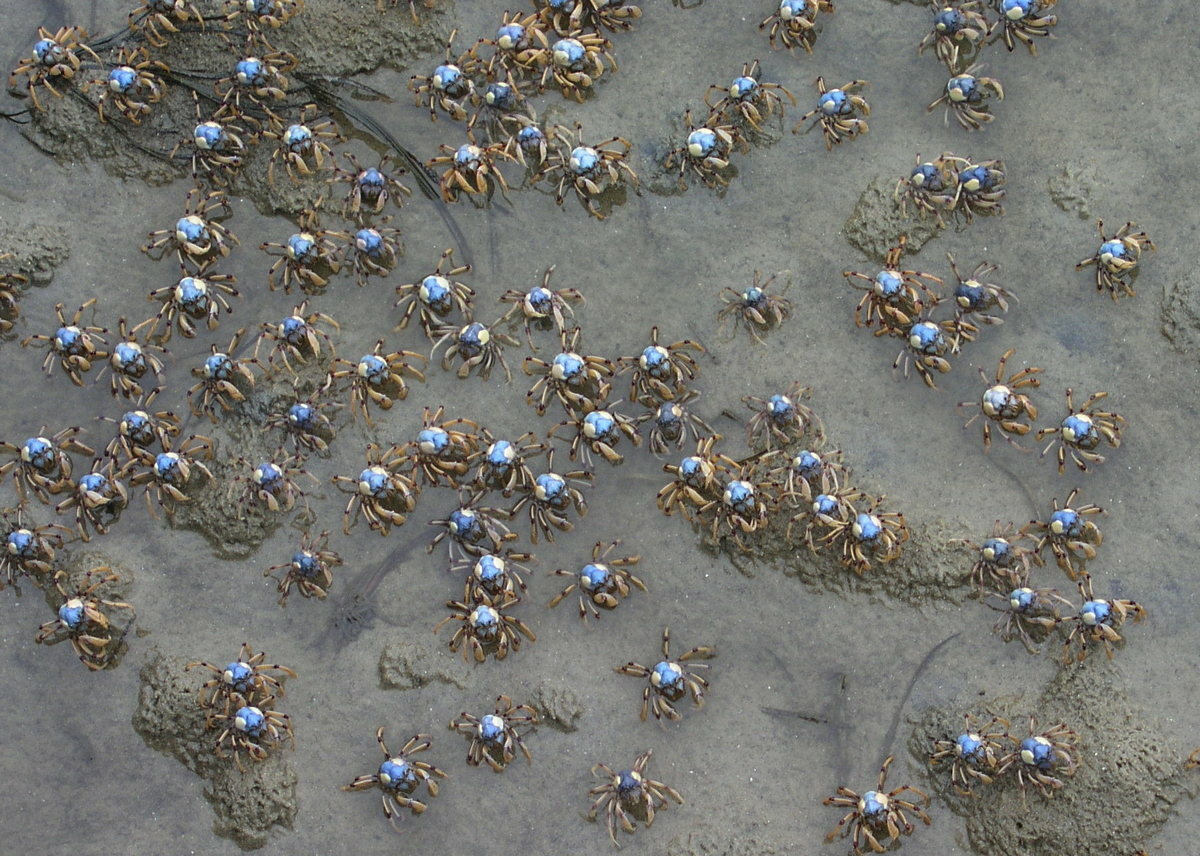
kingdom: Animalia
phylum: Arthropoda
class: Malacostraca
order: Decapoda
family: Mictyridae
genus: Mictyris
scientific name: Mictyris longicarpus
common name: Light-blue soldier crab
